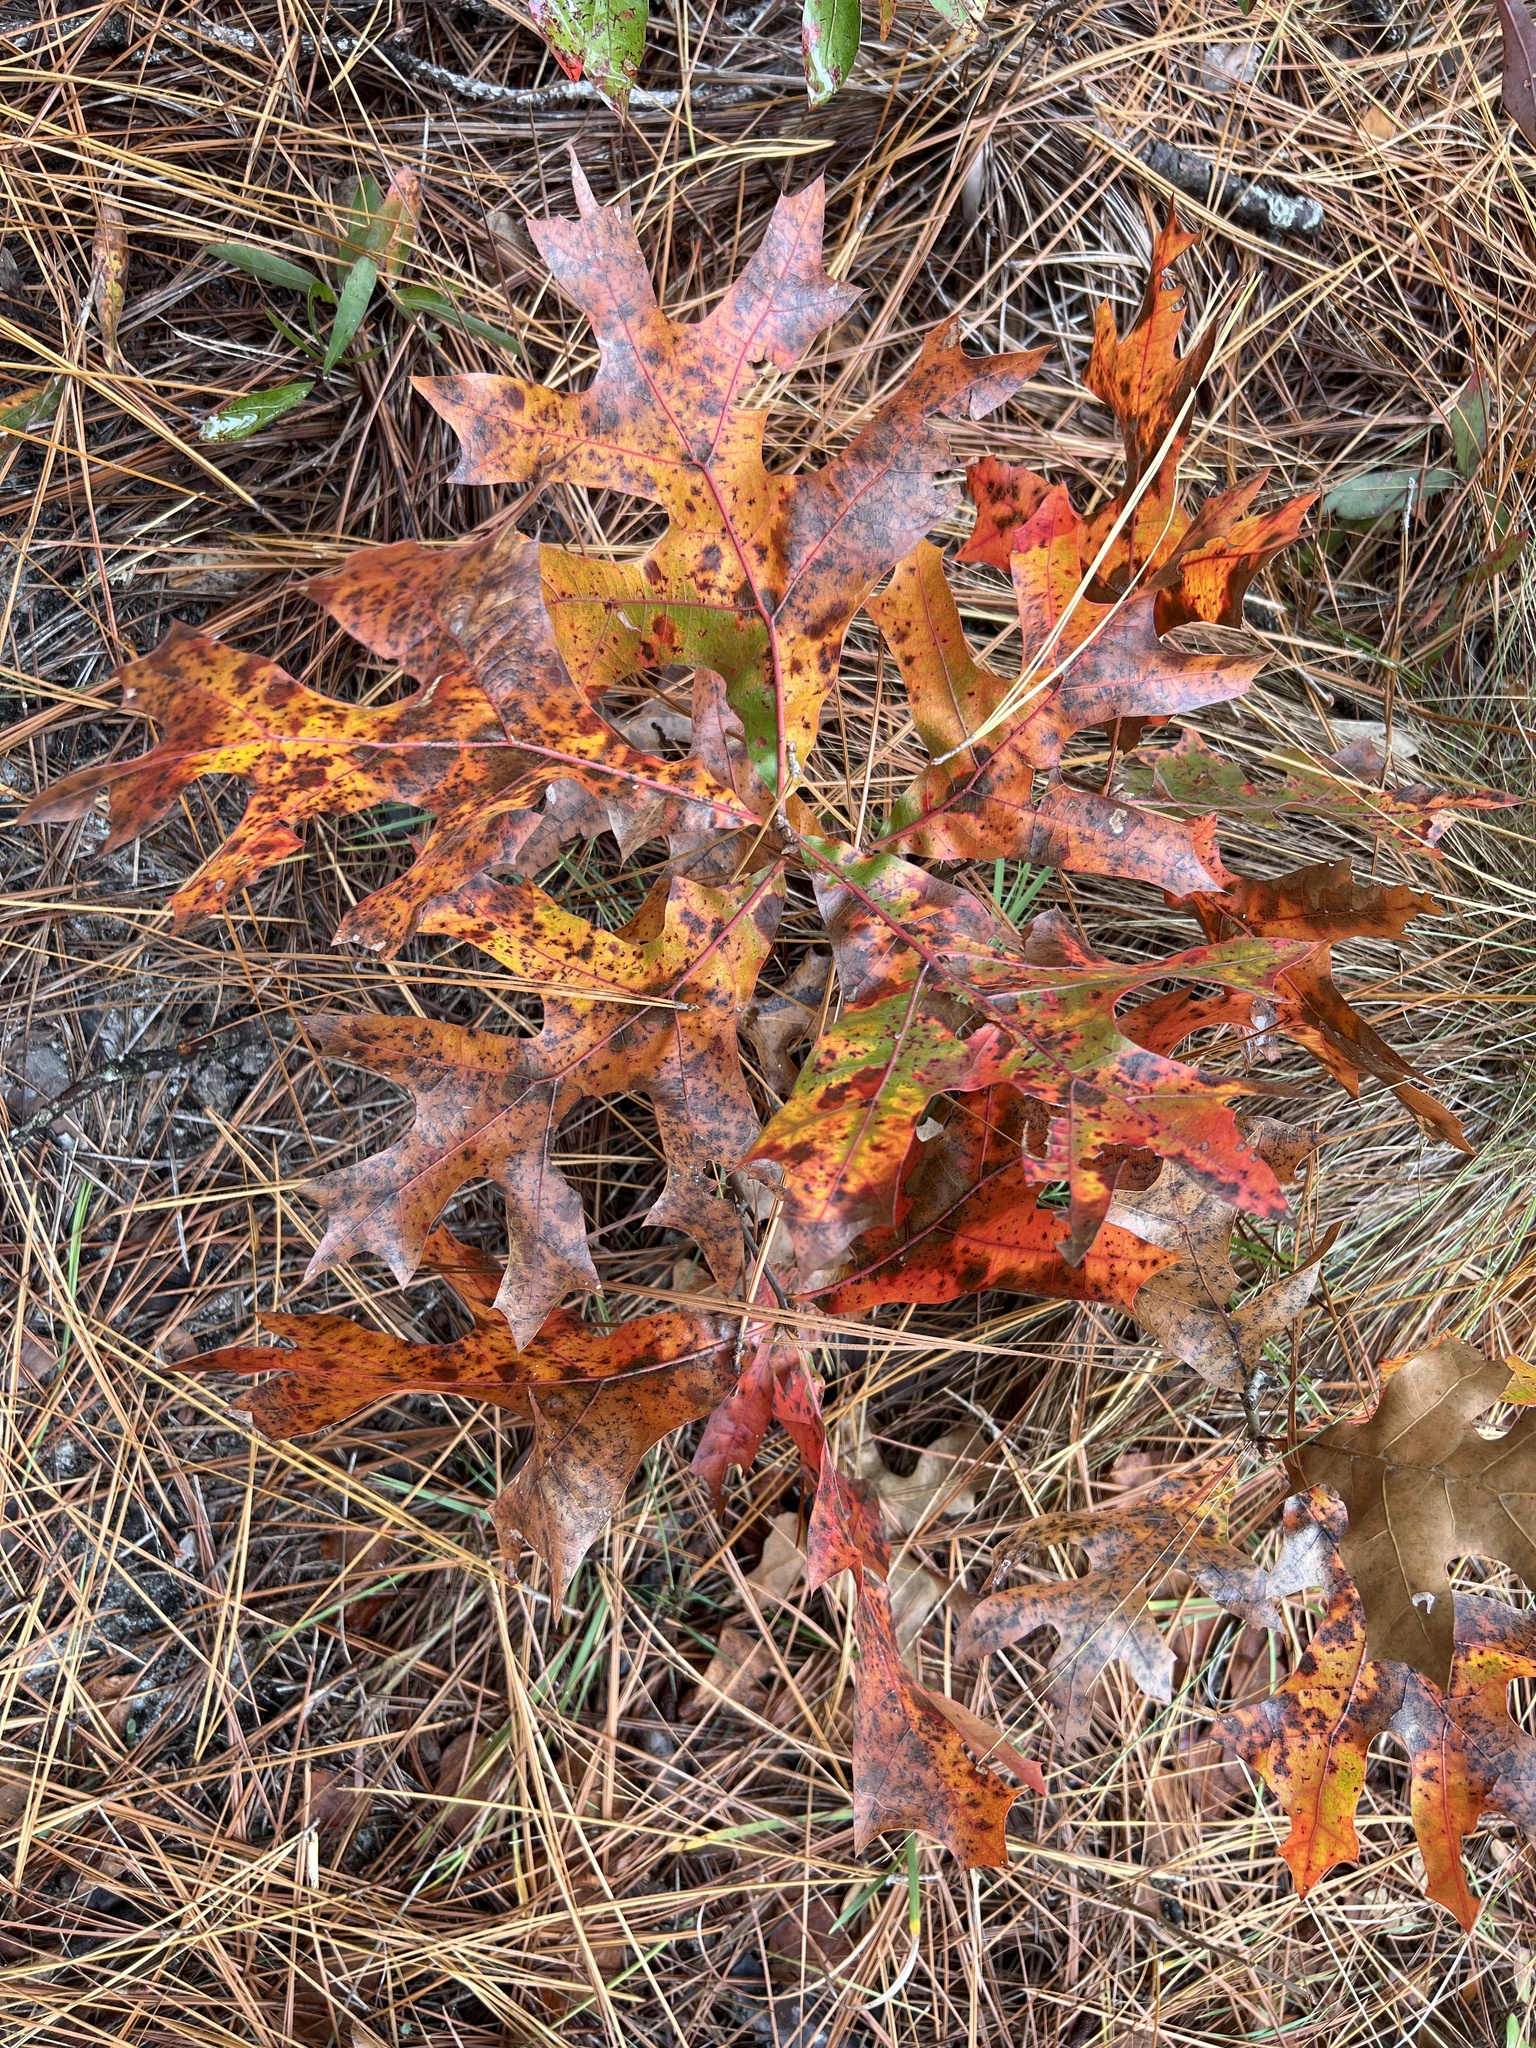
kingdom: Plantae
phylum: Tracheophyta
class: Magnoliopsida
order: Fagales
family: Fagaceae
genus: Quercus
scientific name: Quercus laevis
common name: Turkey oak
